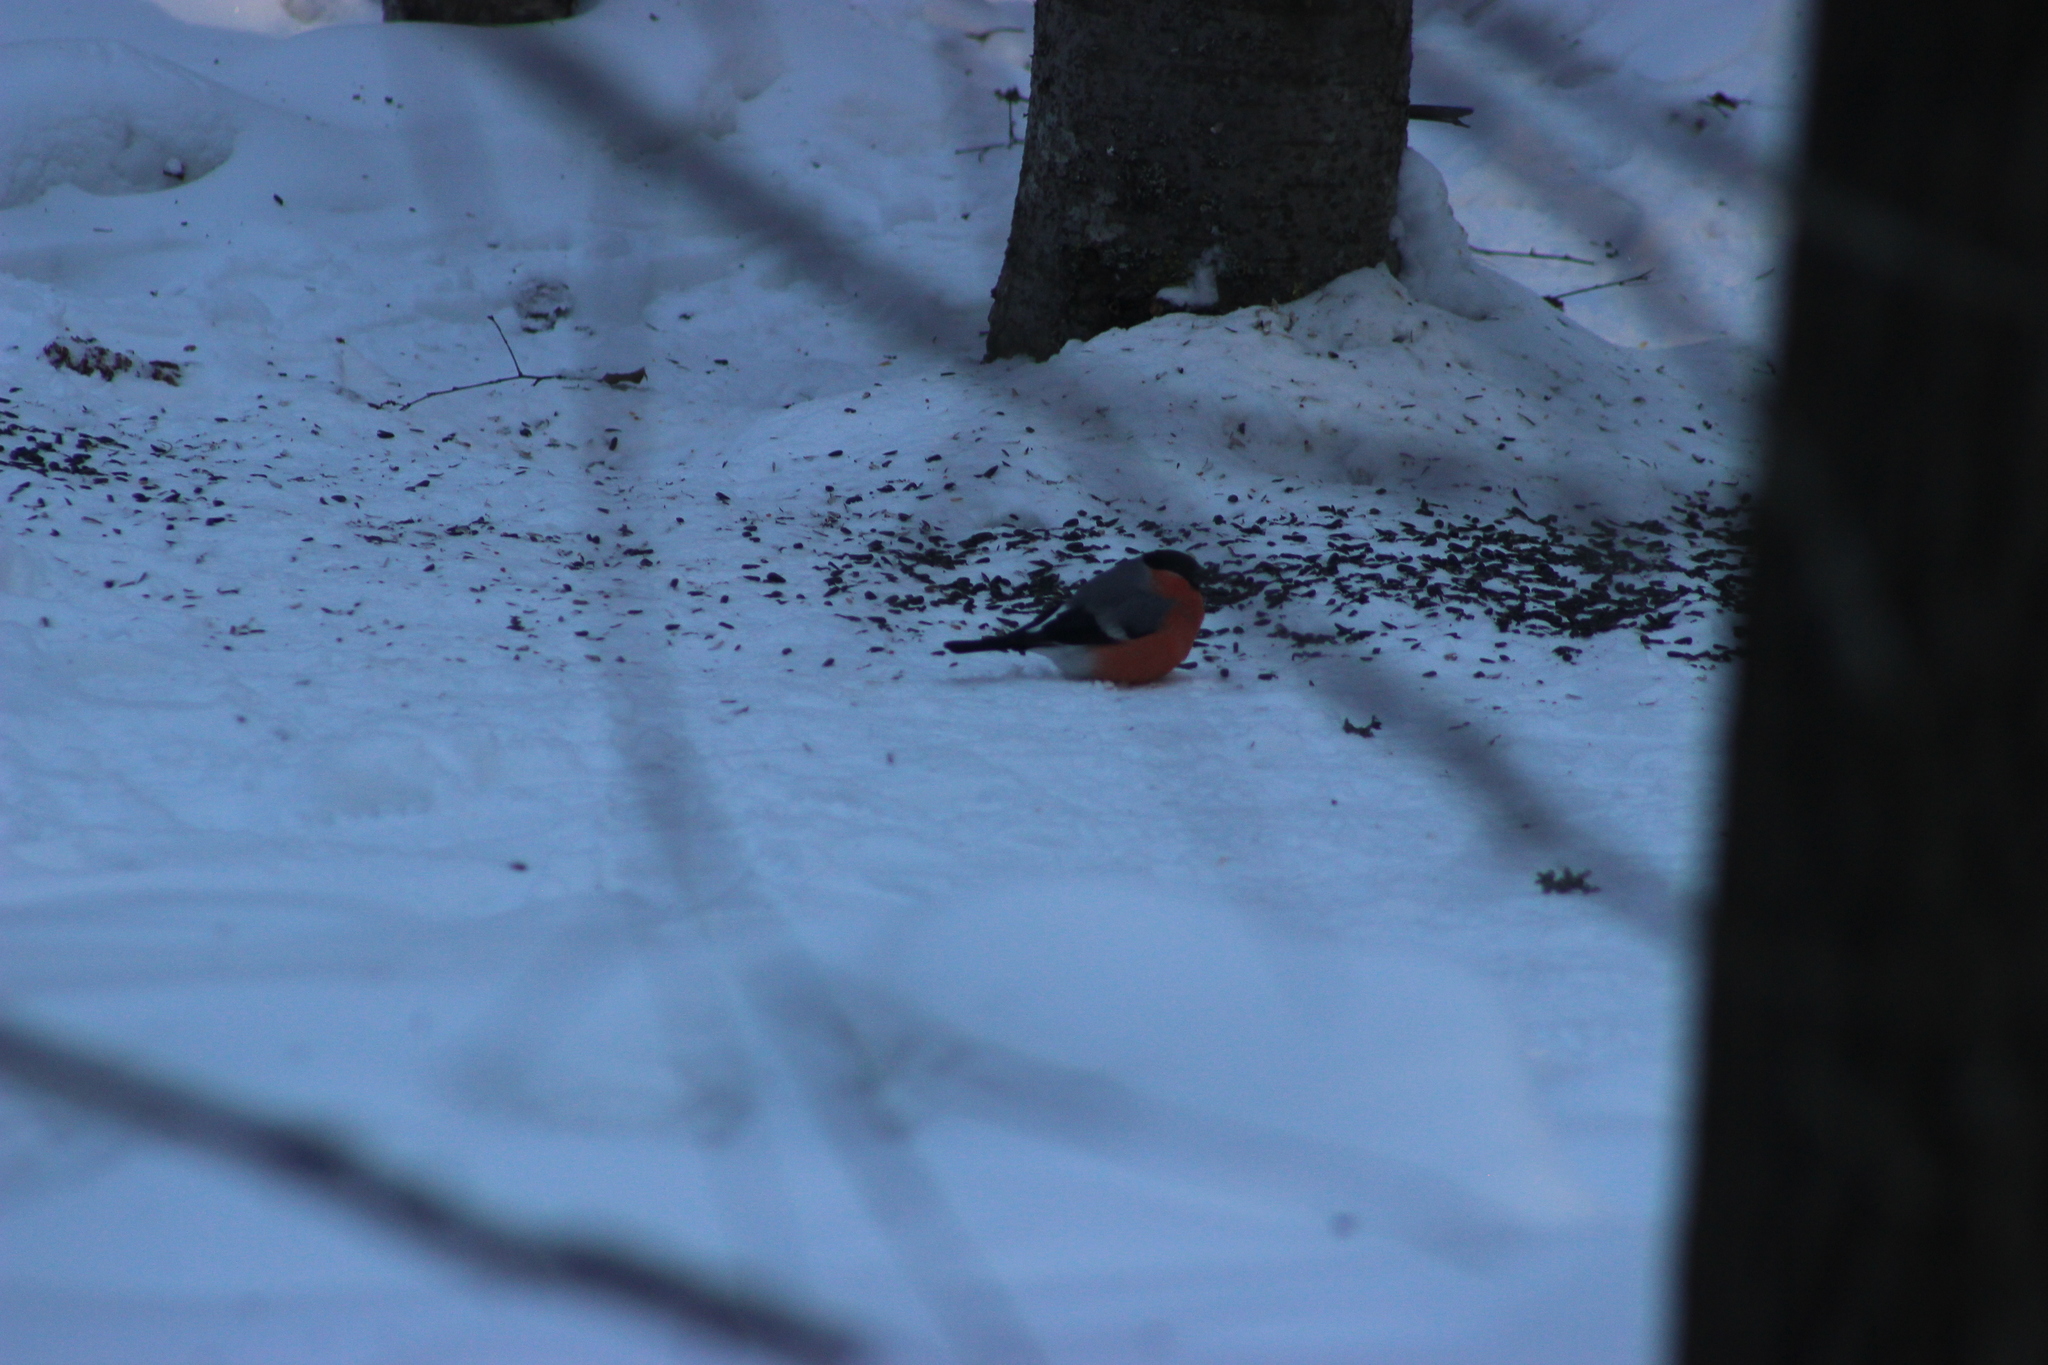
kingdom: Animalia
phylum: Chordata
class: Aves
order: Passeriformes
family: Fringillidae
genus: Pyrrhula
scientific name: Pyrrhula pyrrhula
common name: Eurasian bullfinch
